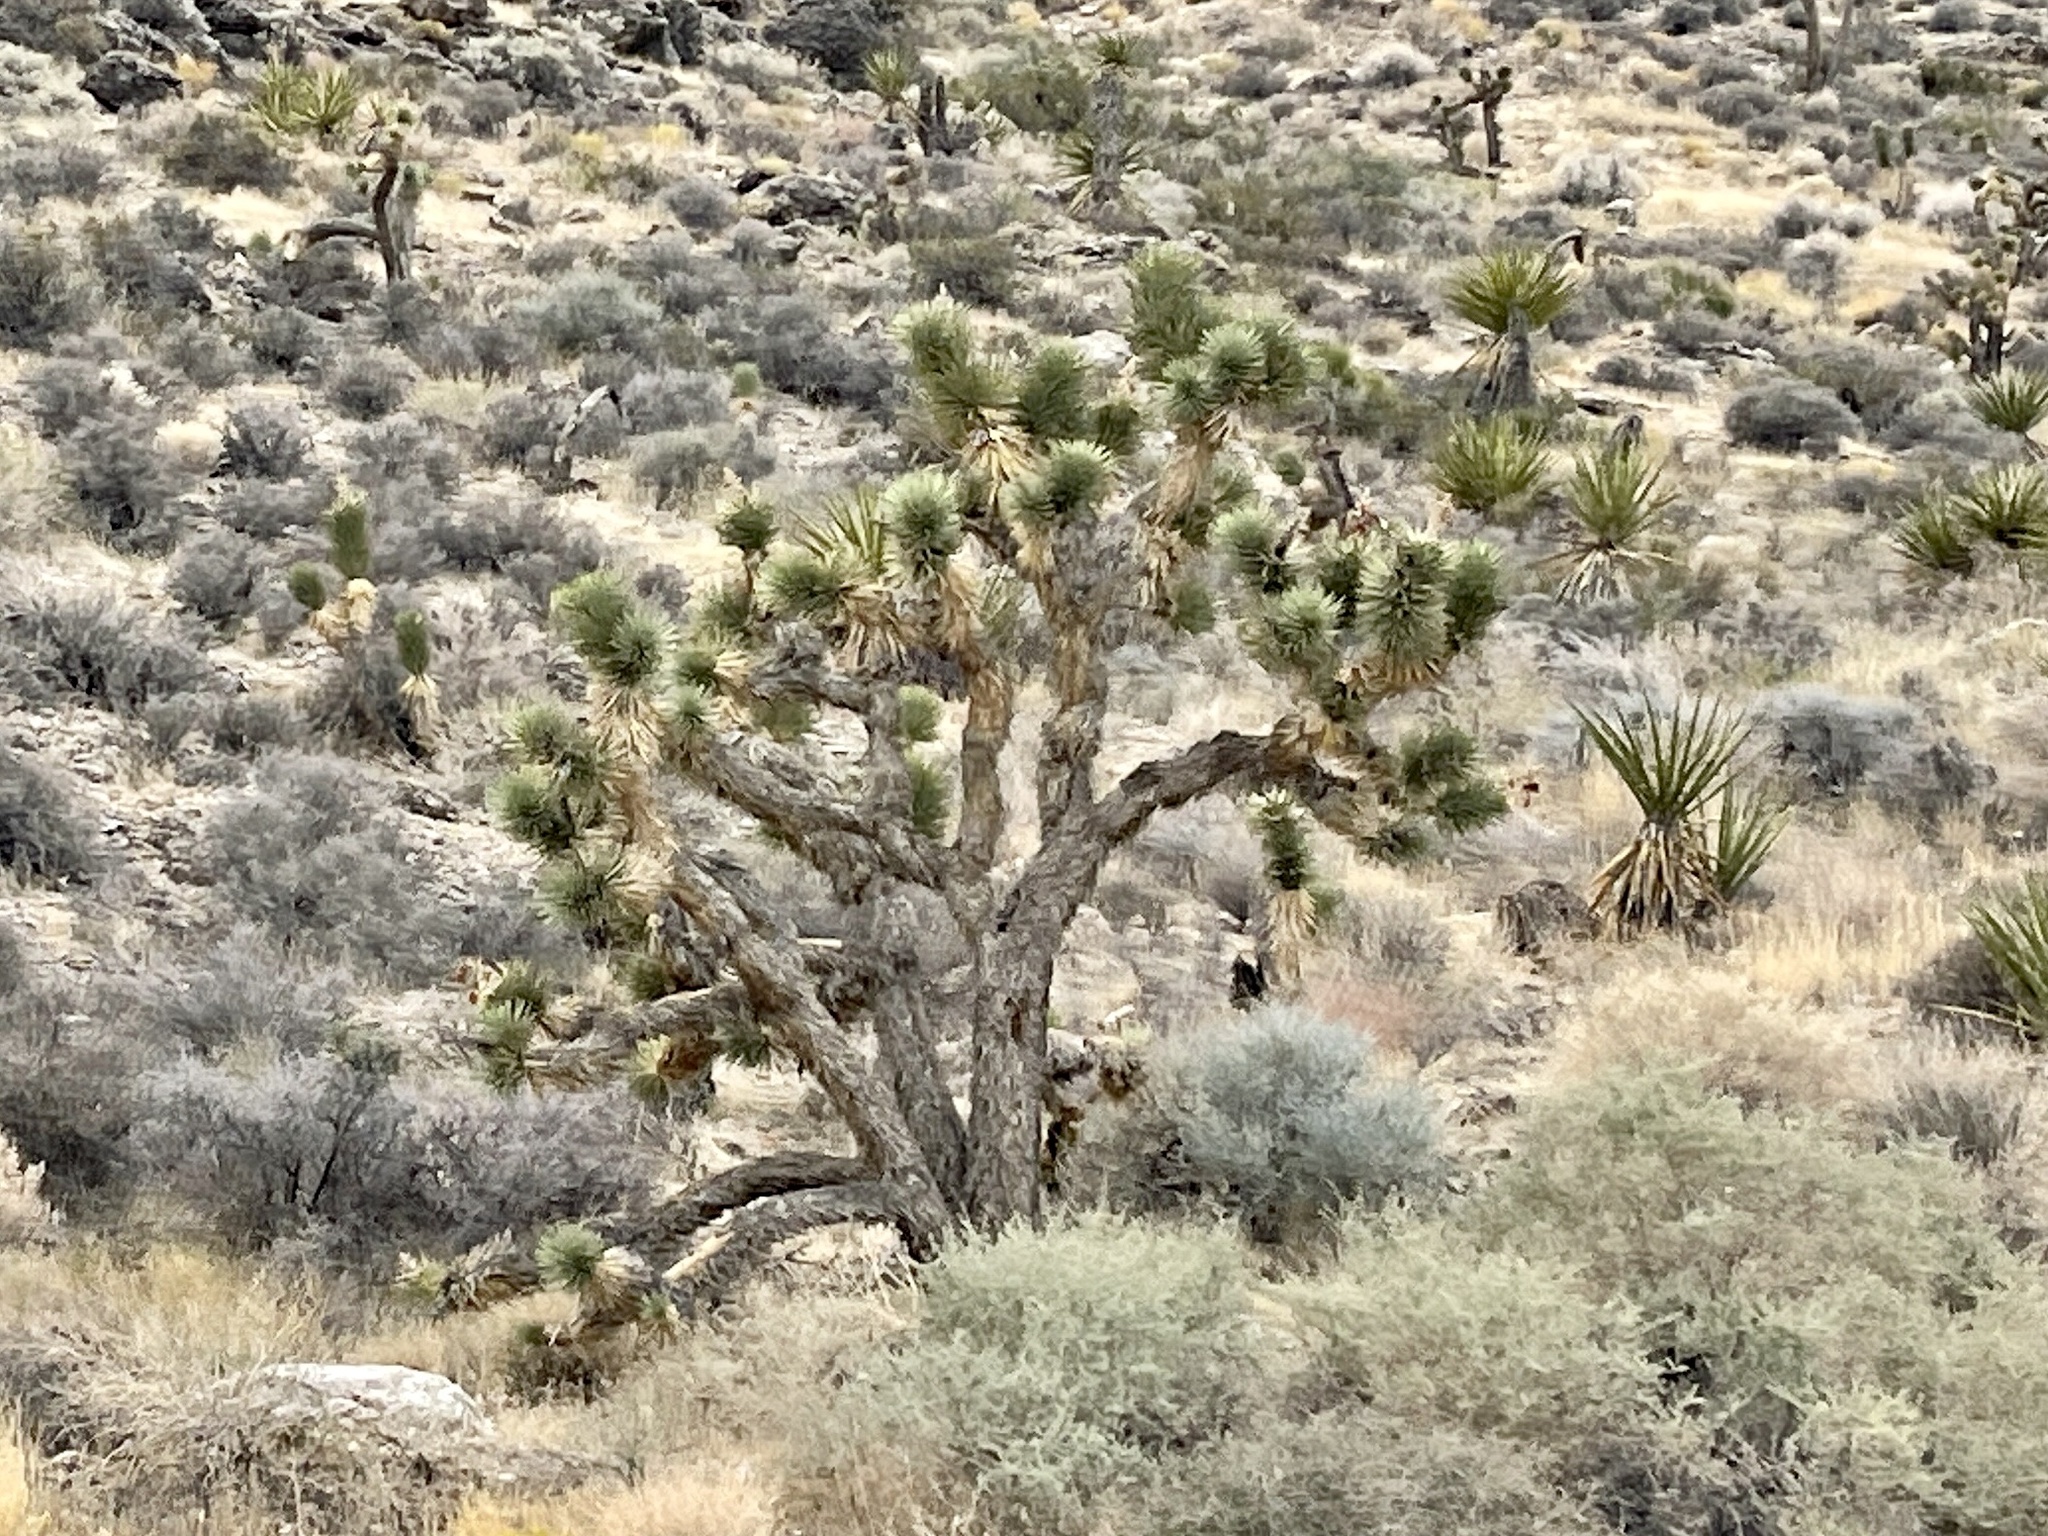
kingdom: Plantae
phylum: Tracheophyta
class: Liliopsida
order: Asparagales
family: Asparagaceae
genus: Yucca
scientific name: Yucca brevifolia
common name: Joshua tree
